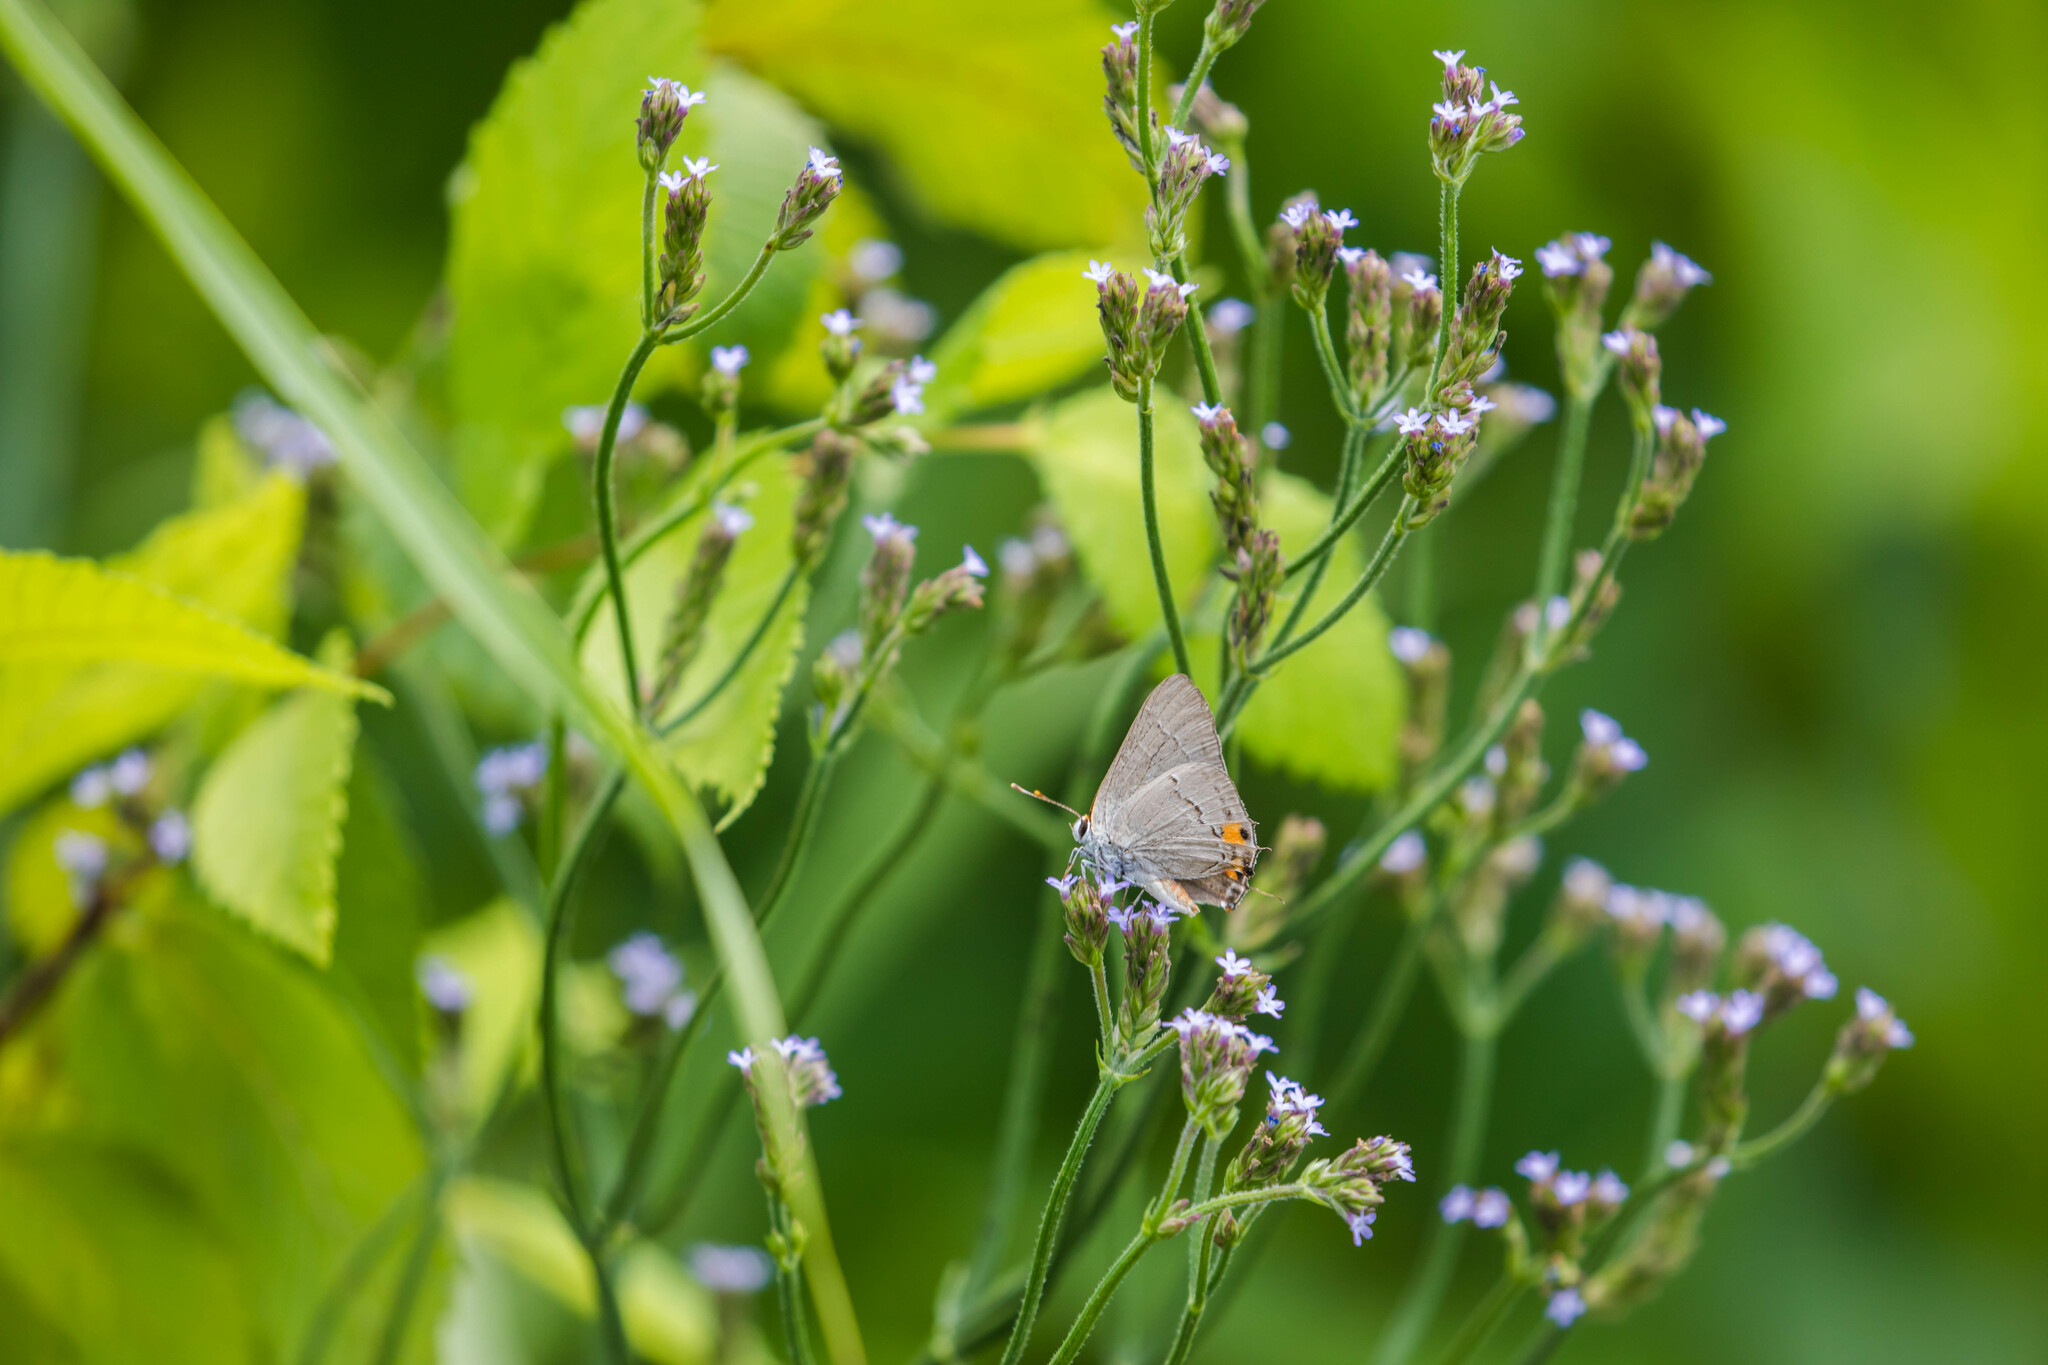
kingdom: Animalia
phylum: Arthropoda
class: Insecta
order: Lepidoptera
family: Lycaenidae
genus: Strymon
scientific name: Strymon melinus
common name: Gray hairstreak
